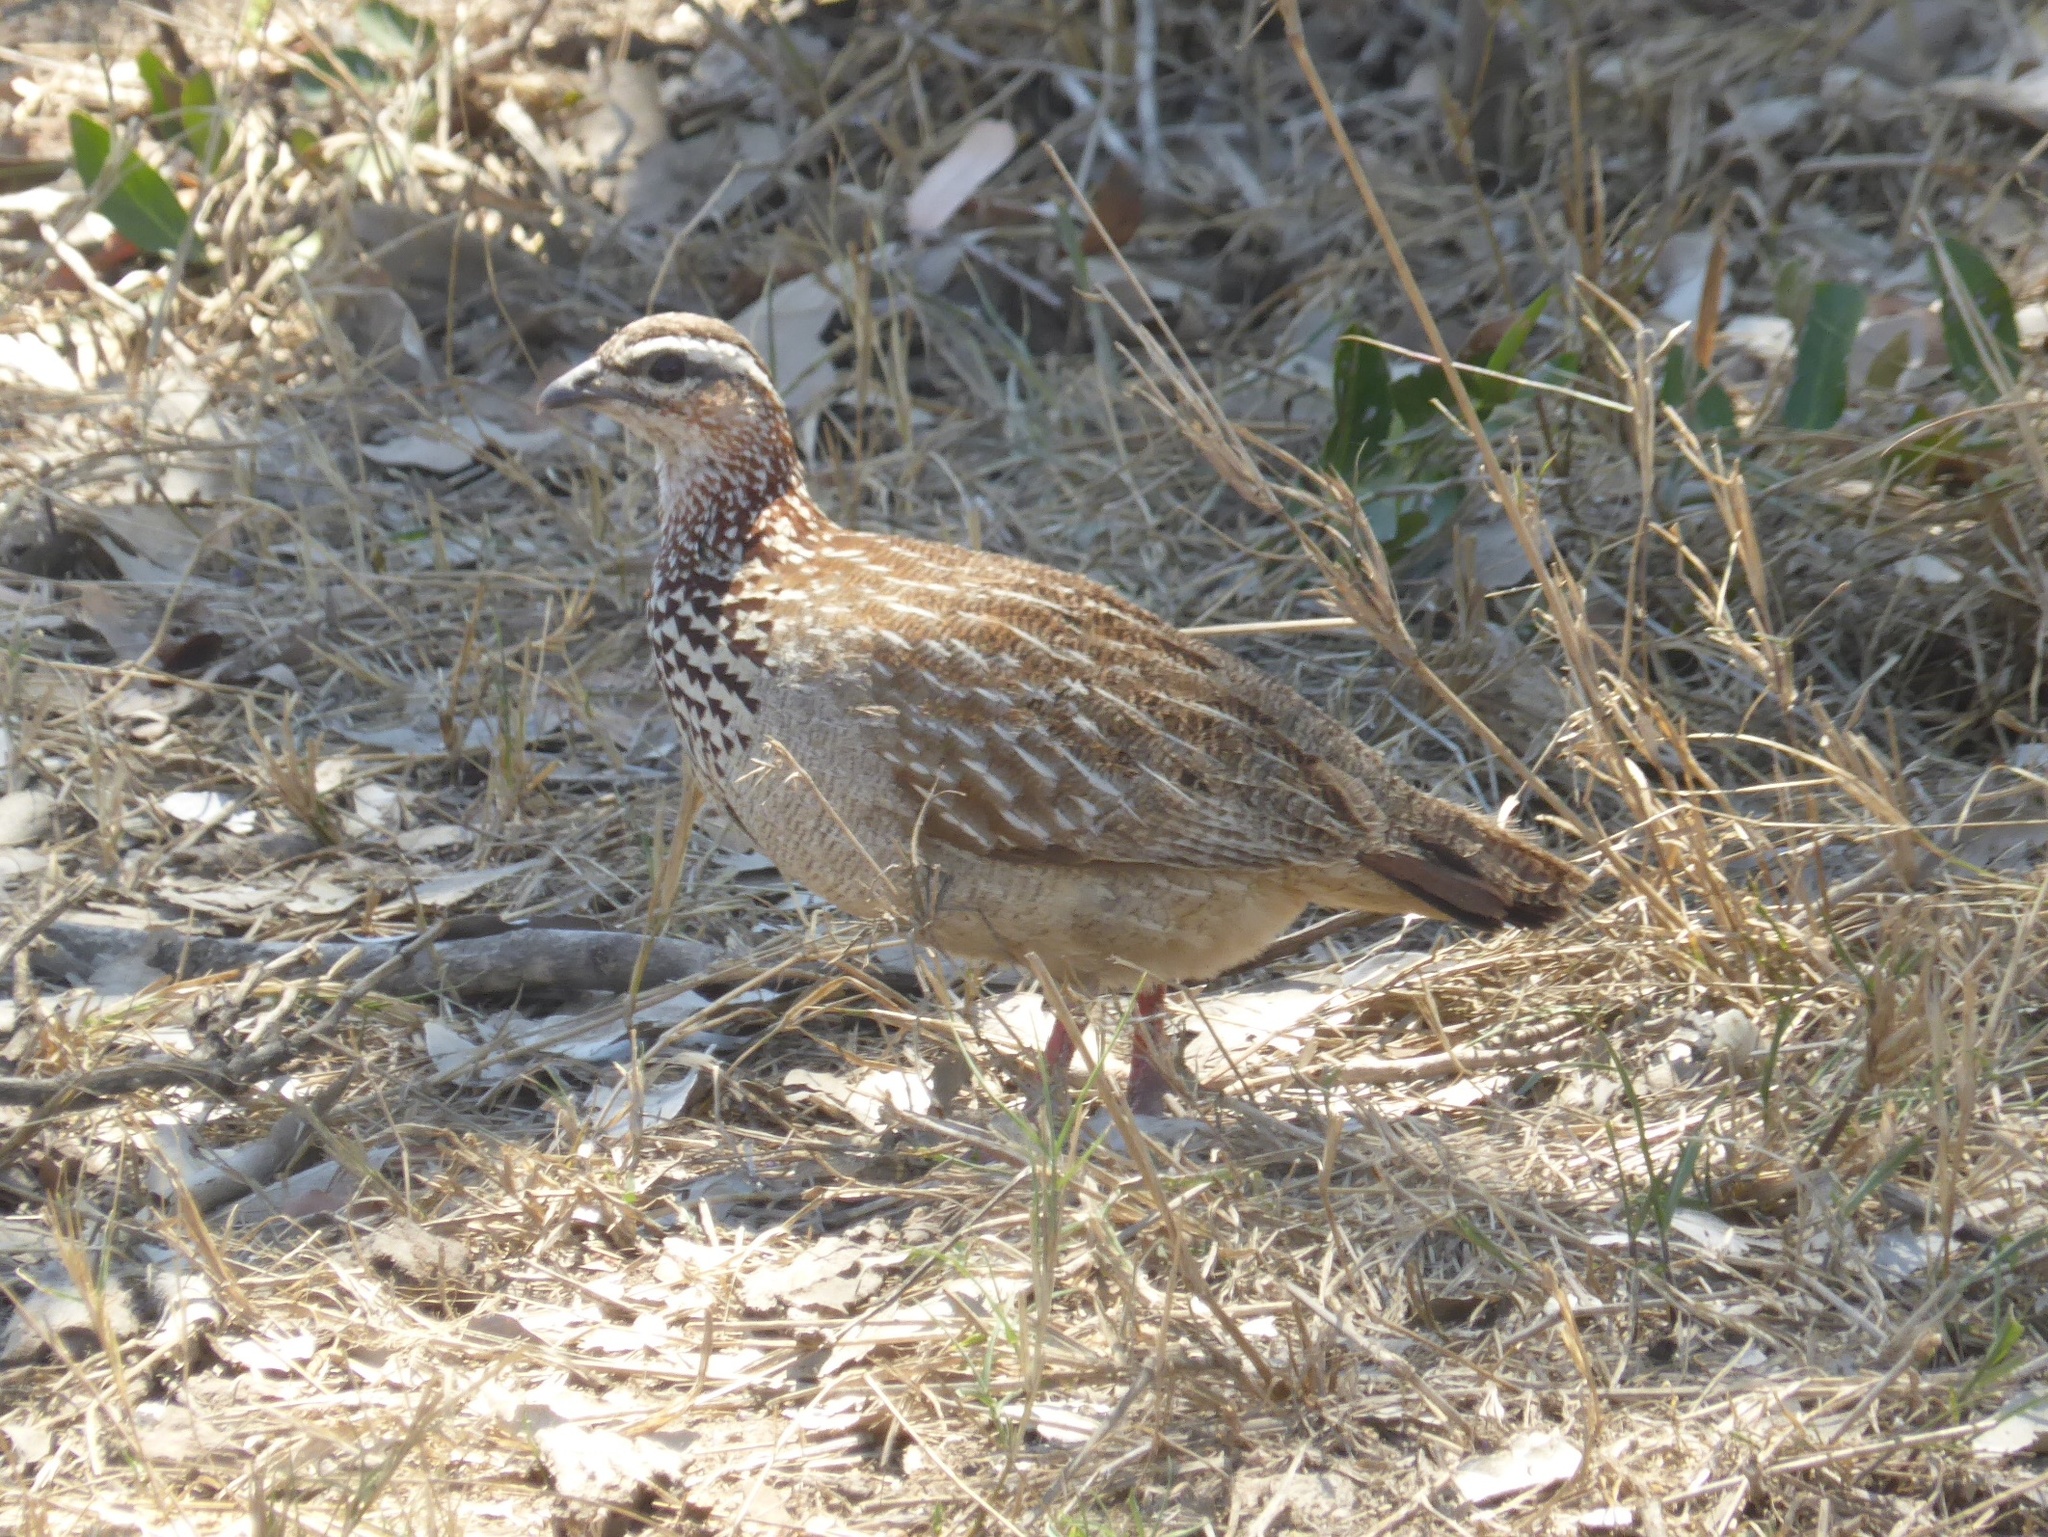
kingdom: Animalia
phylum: Chordata
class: Aves
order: Galliformes
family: Phasianidae
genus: Ortygornis
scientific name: Ortygornis sephaena
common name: Crested francolin
